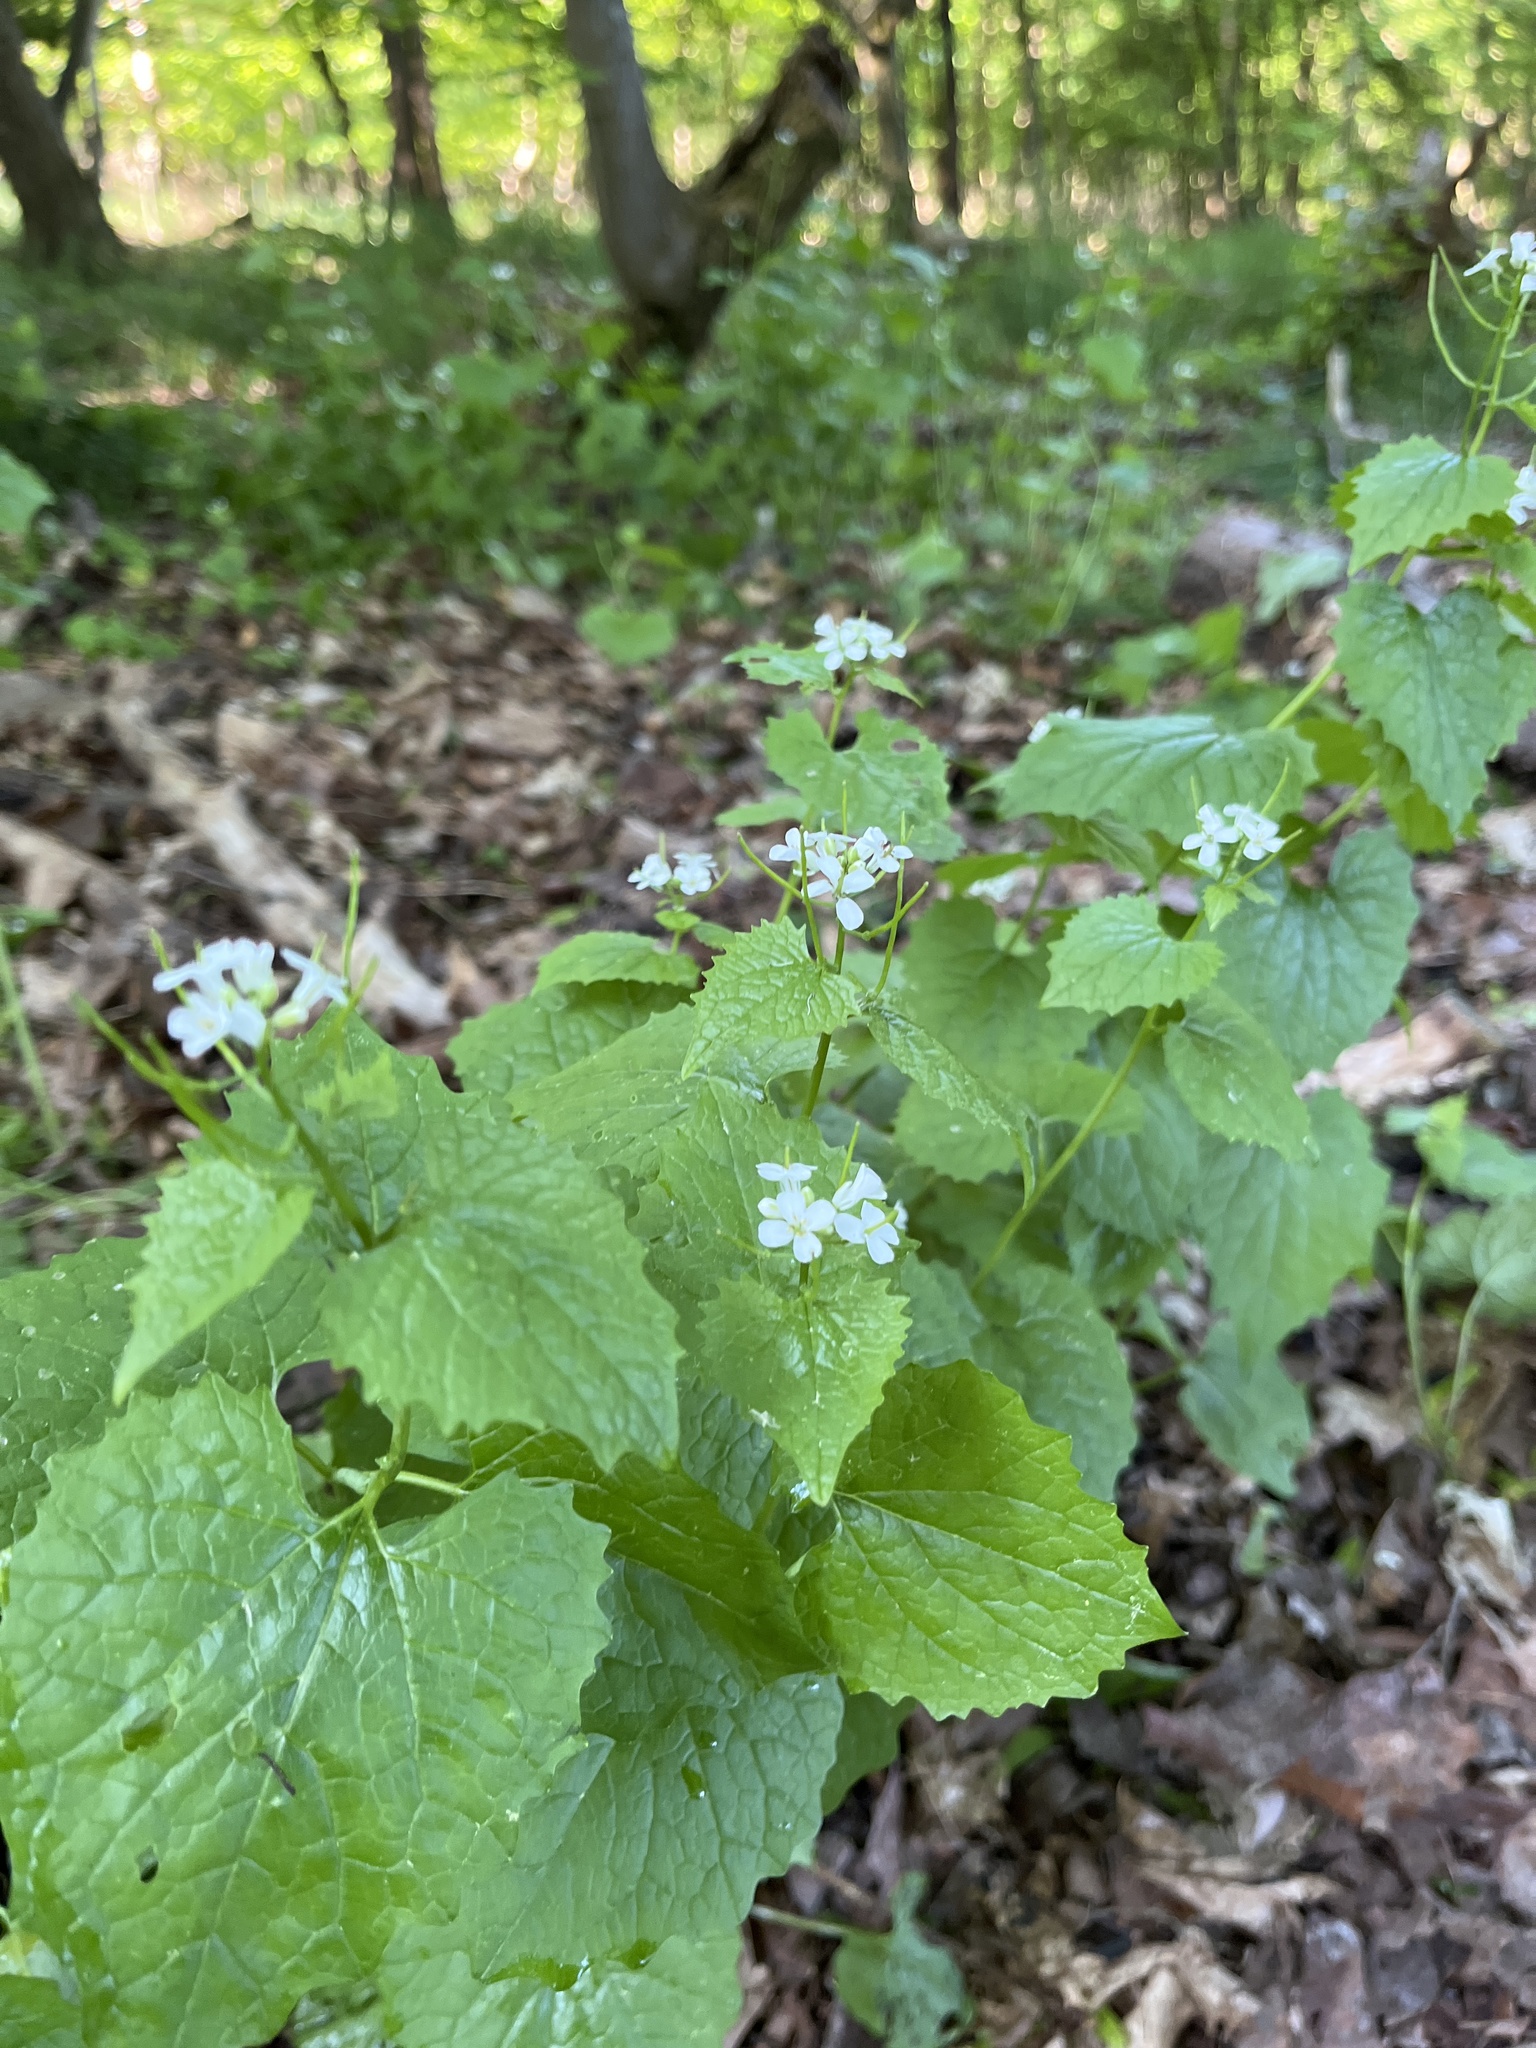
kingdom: Plantae
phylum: Tracheophyta
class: Magnoliopsida
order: Brassicales
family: Brassicaceae
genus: Alliaria
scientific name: Alliaria petiolata
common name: Garlic mustard
